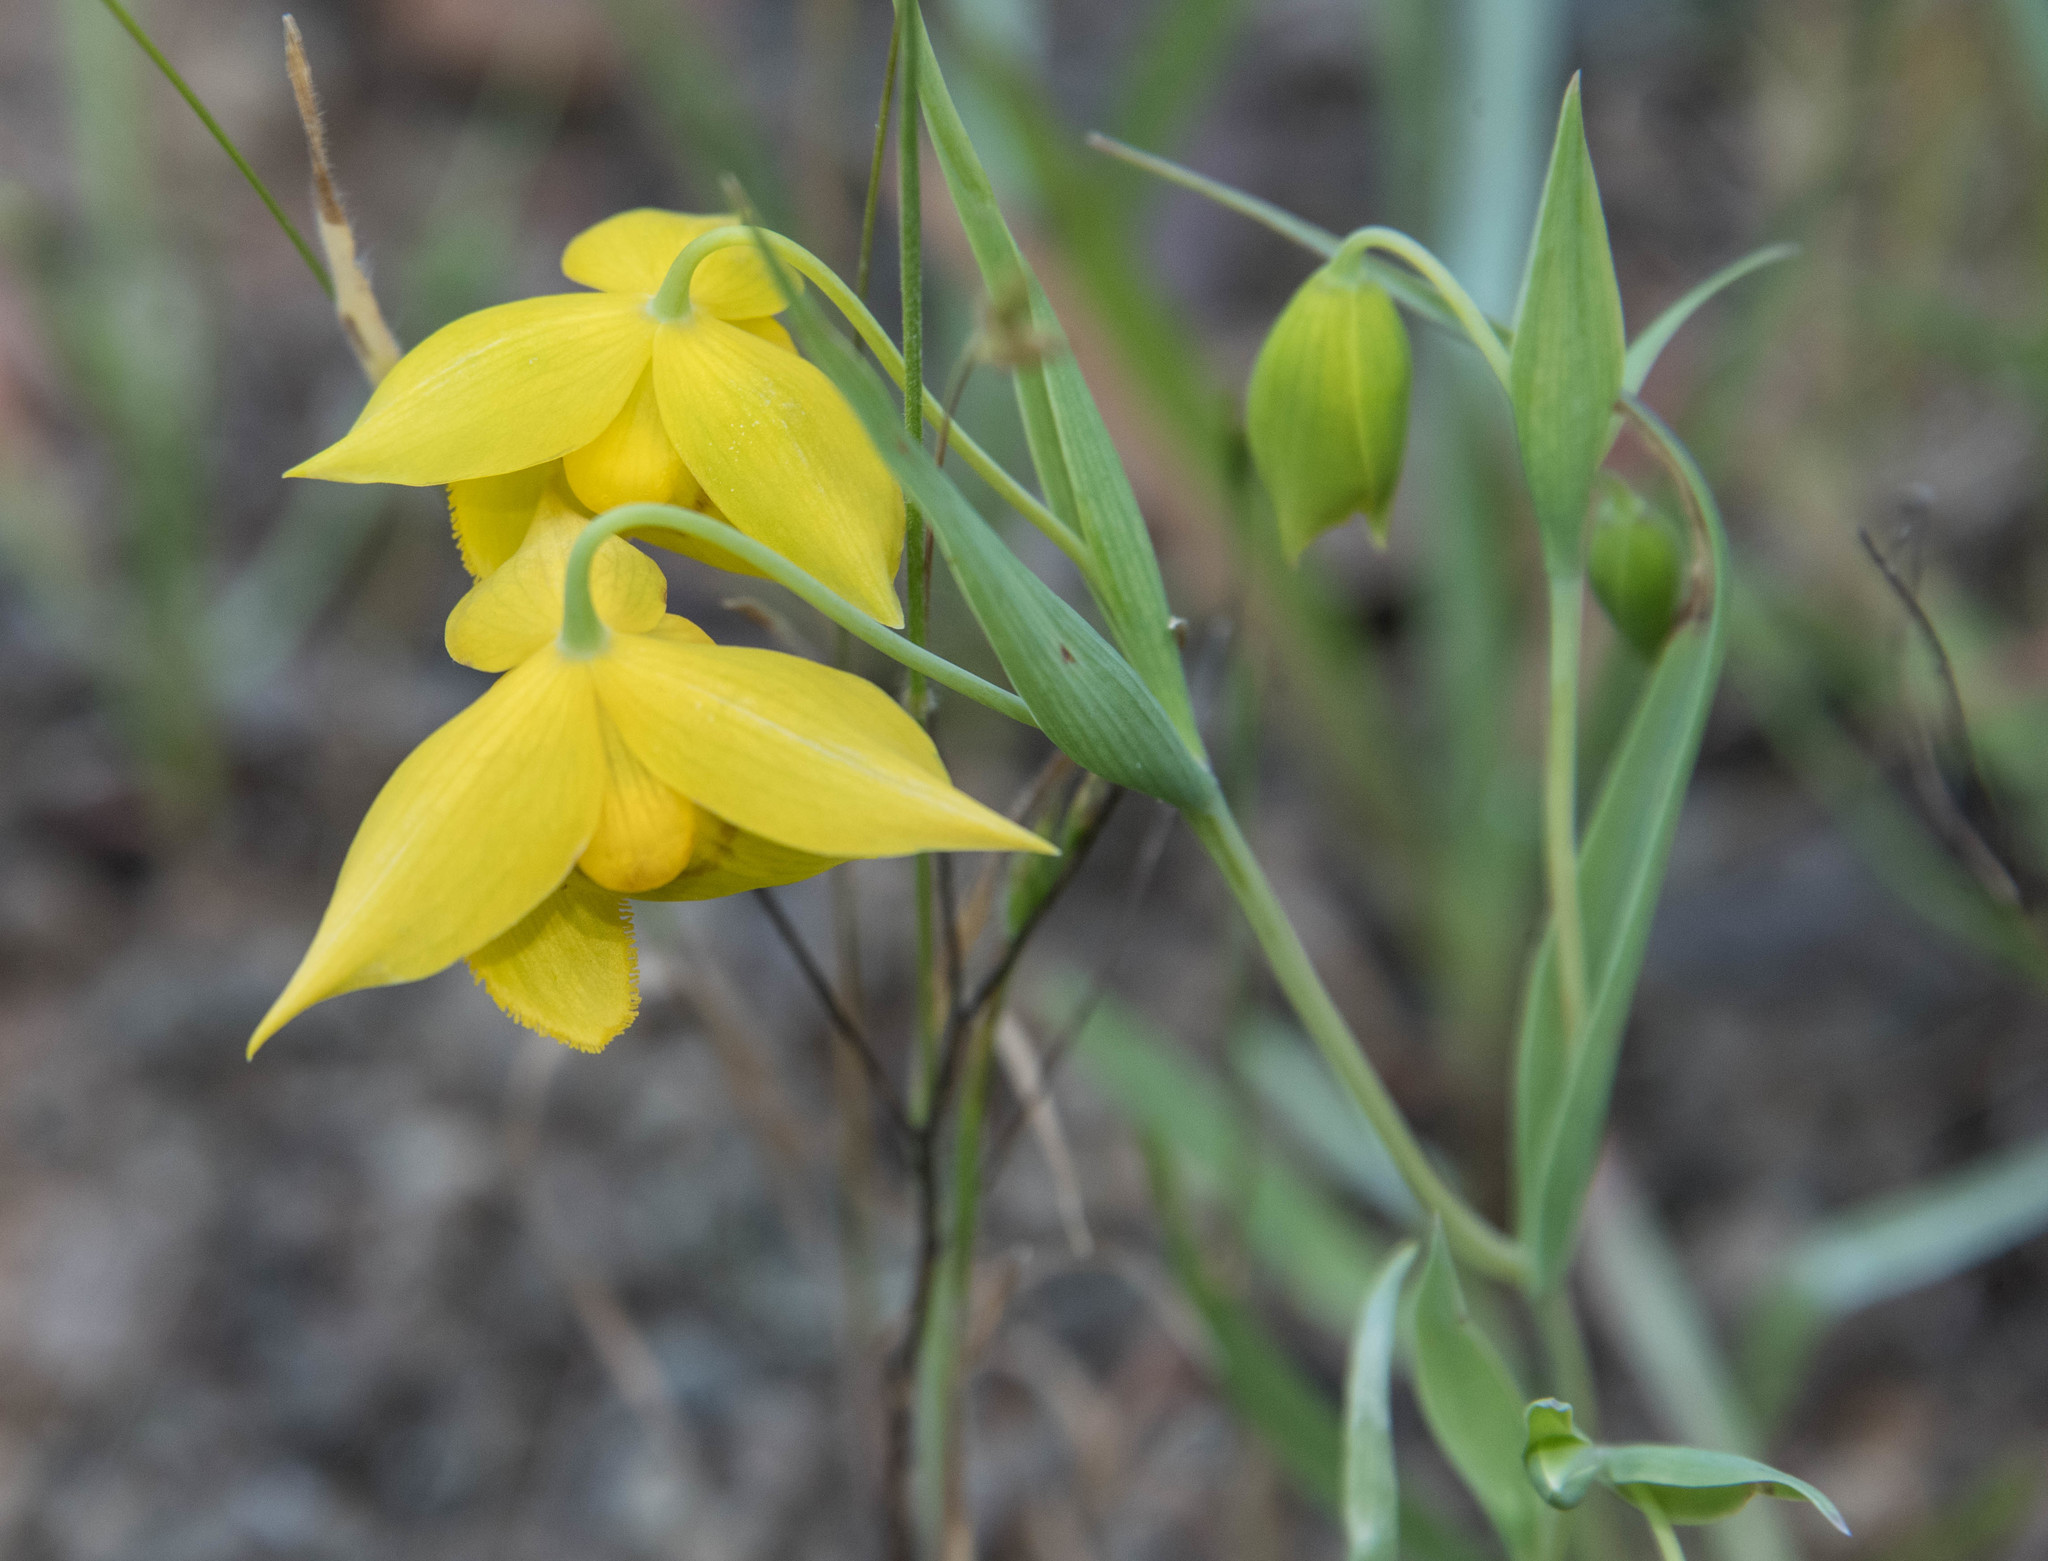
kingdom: Plantae
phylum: Tracheophyta
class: Liliopsida
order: Liliales
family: Liliaceae
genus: Calochortus
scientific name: Calochortus amabilis
